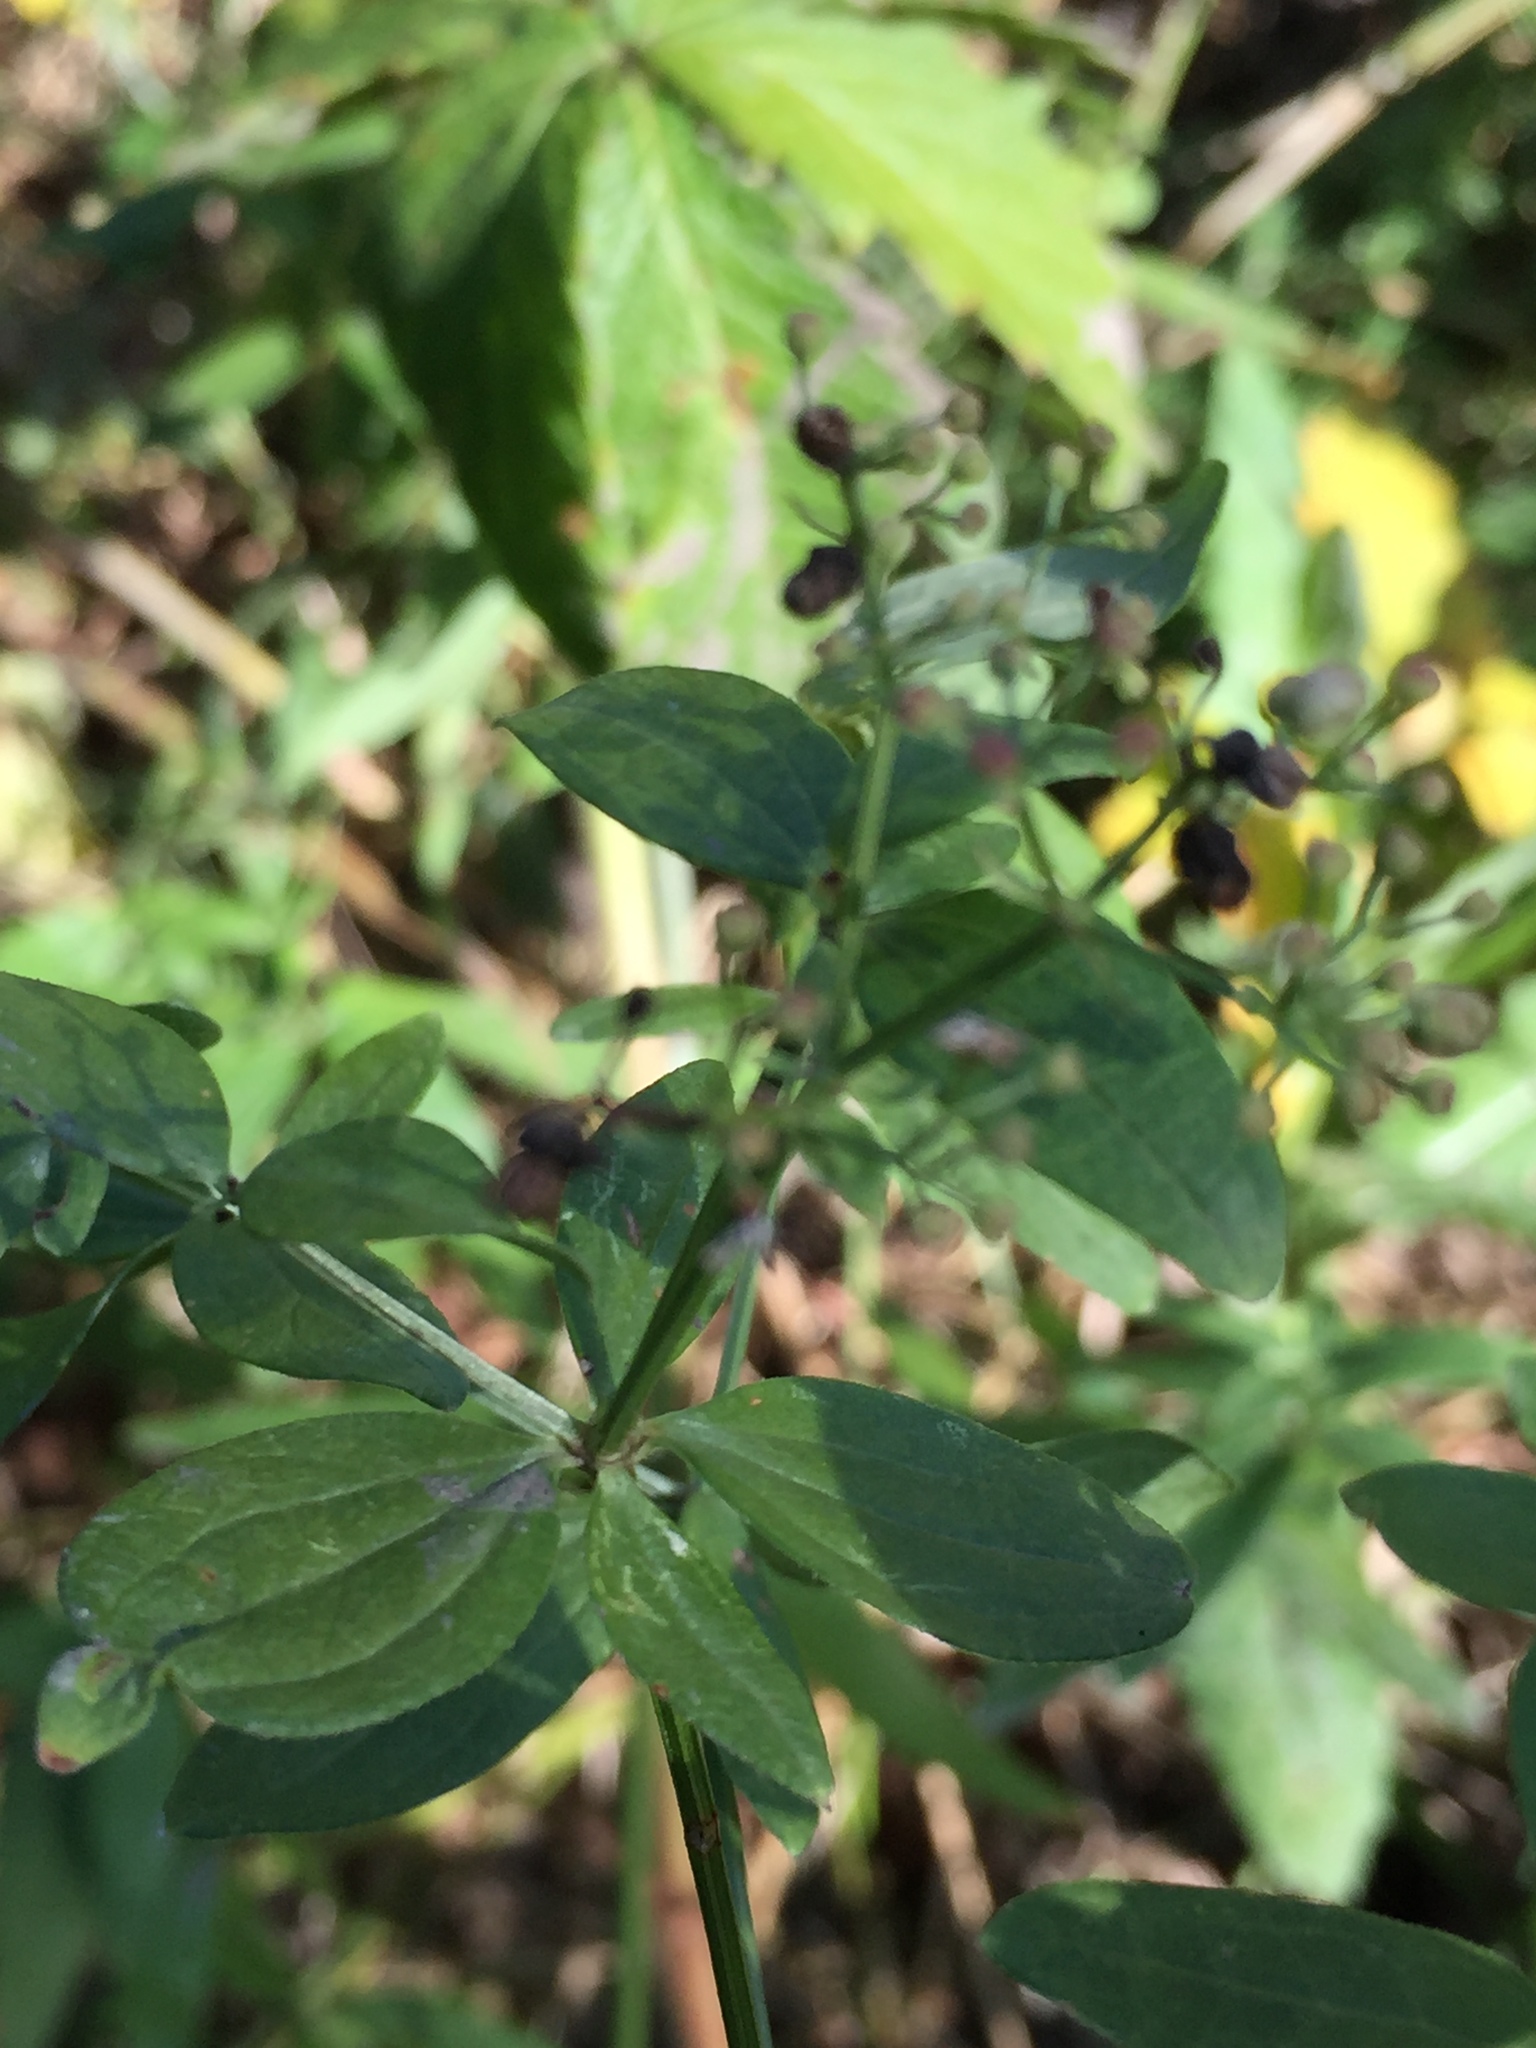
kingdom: Plantae
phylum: Tracheophyta
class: Magnoliopsida
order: Gentianales
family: Rubiaceae
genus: Galium
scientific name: Galium rubioides
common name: European bedstraw
